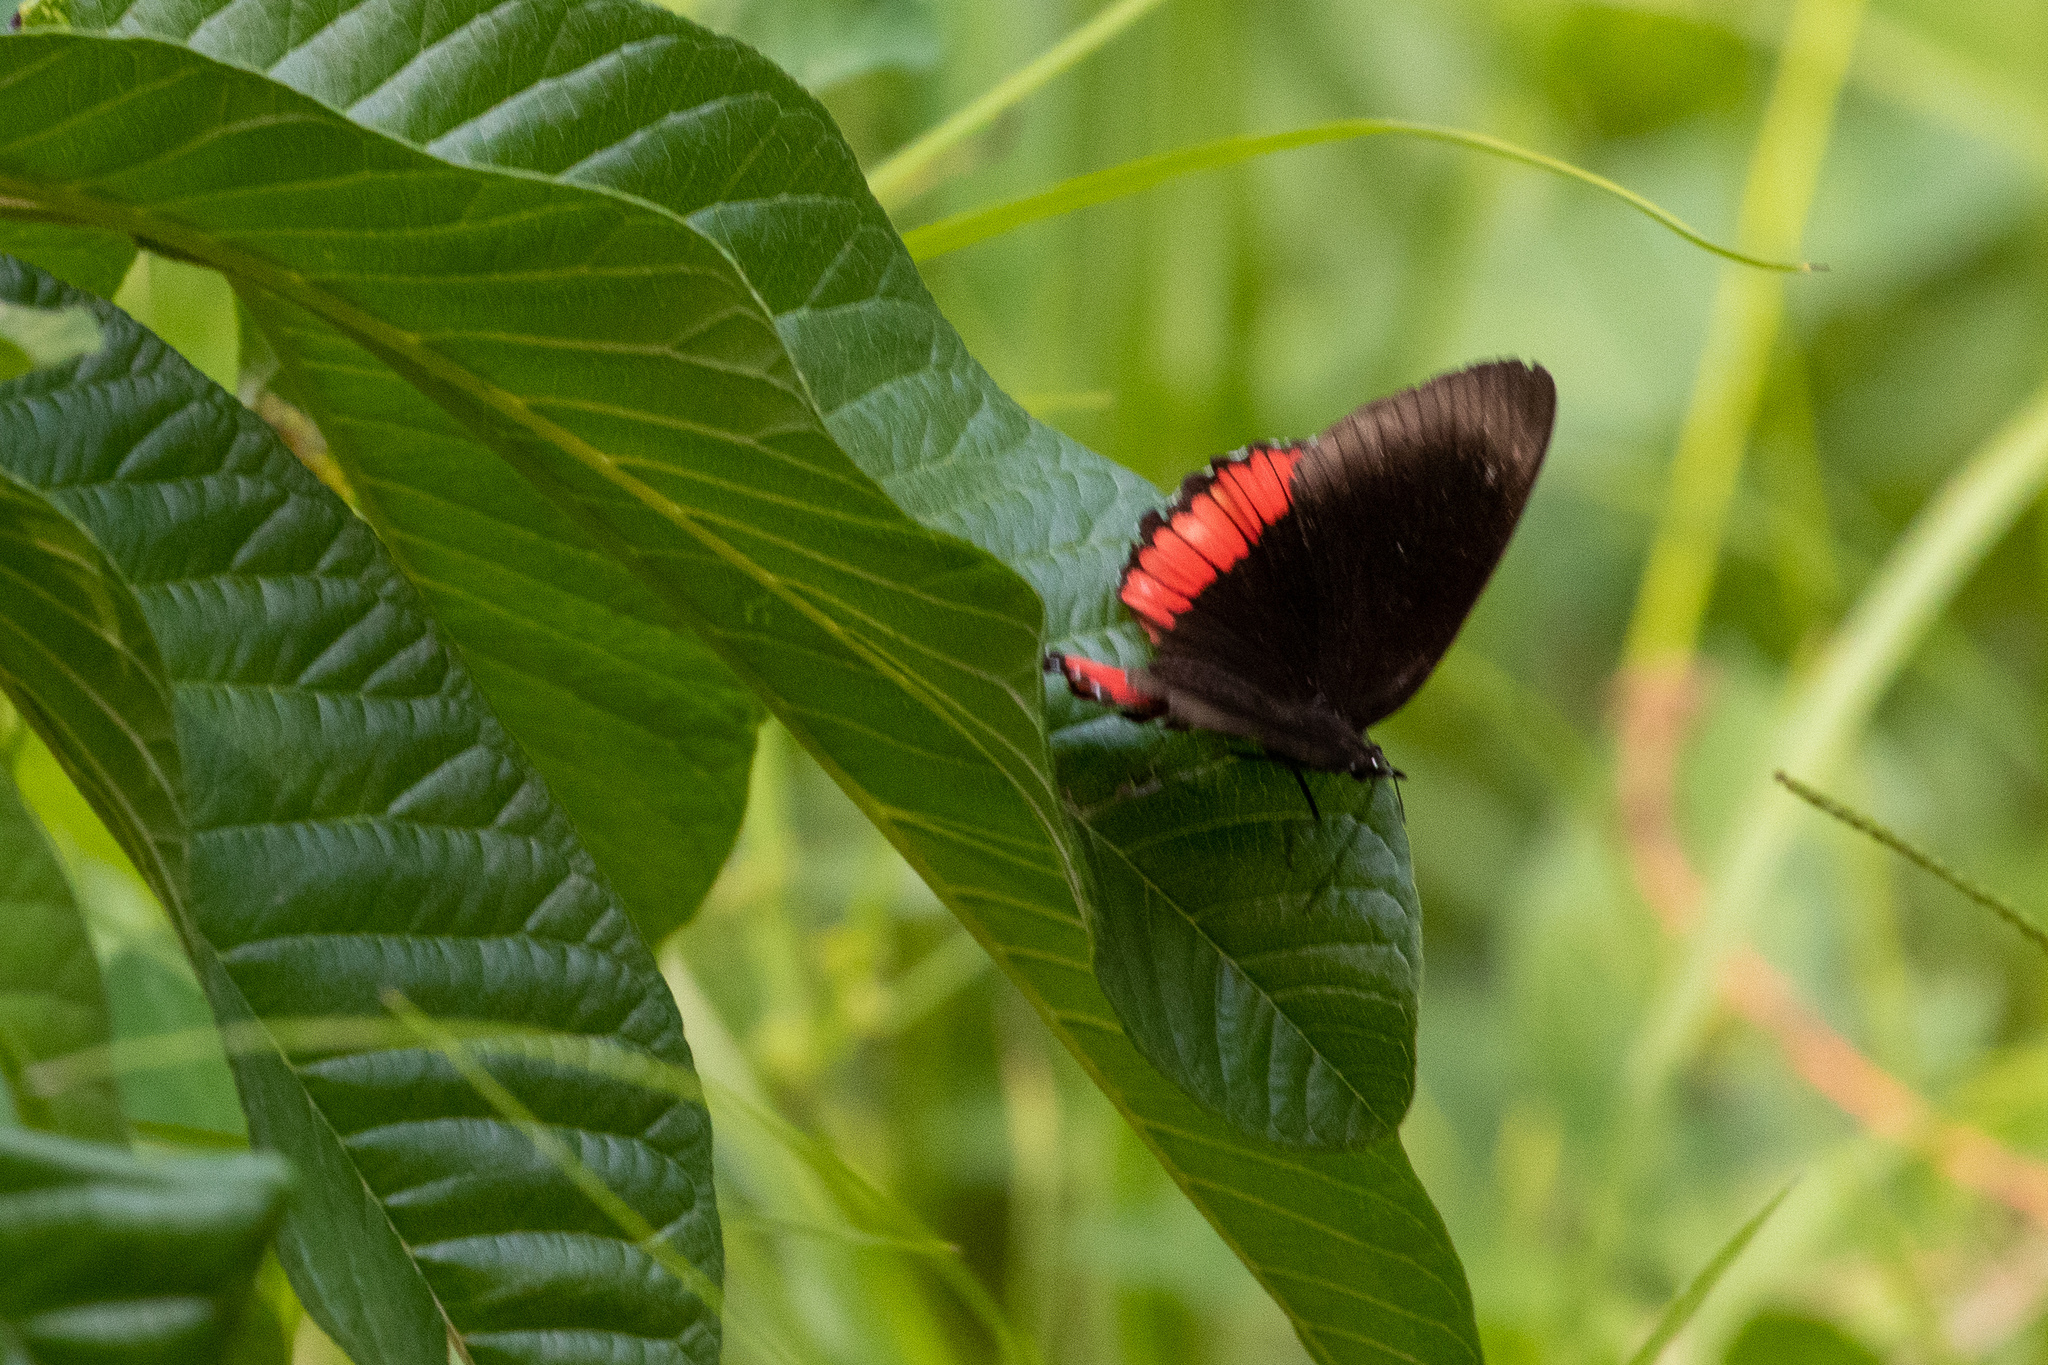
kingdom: Animalia
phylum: Arthropoda
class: Insecta
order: Lepidoptera
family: Sesiidae
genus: Sesia
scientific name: Sesia Biblis hyperia
